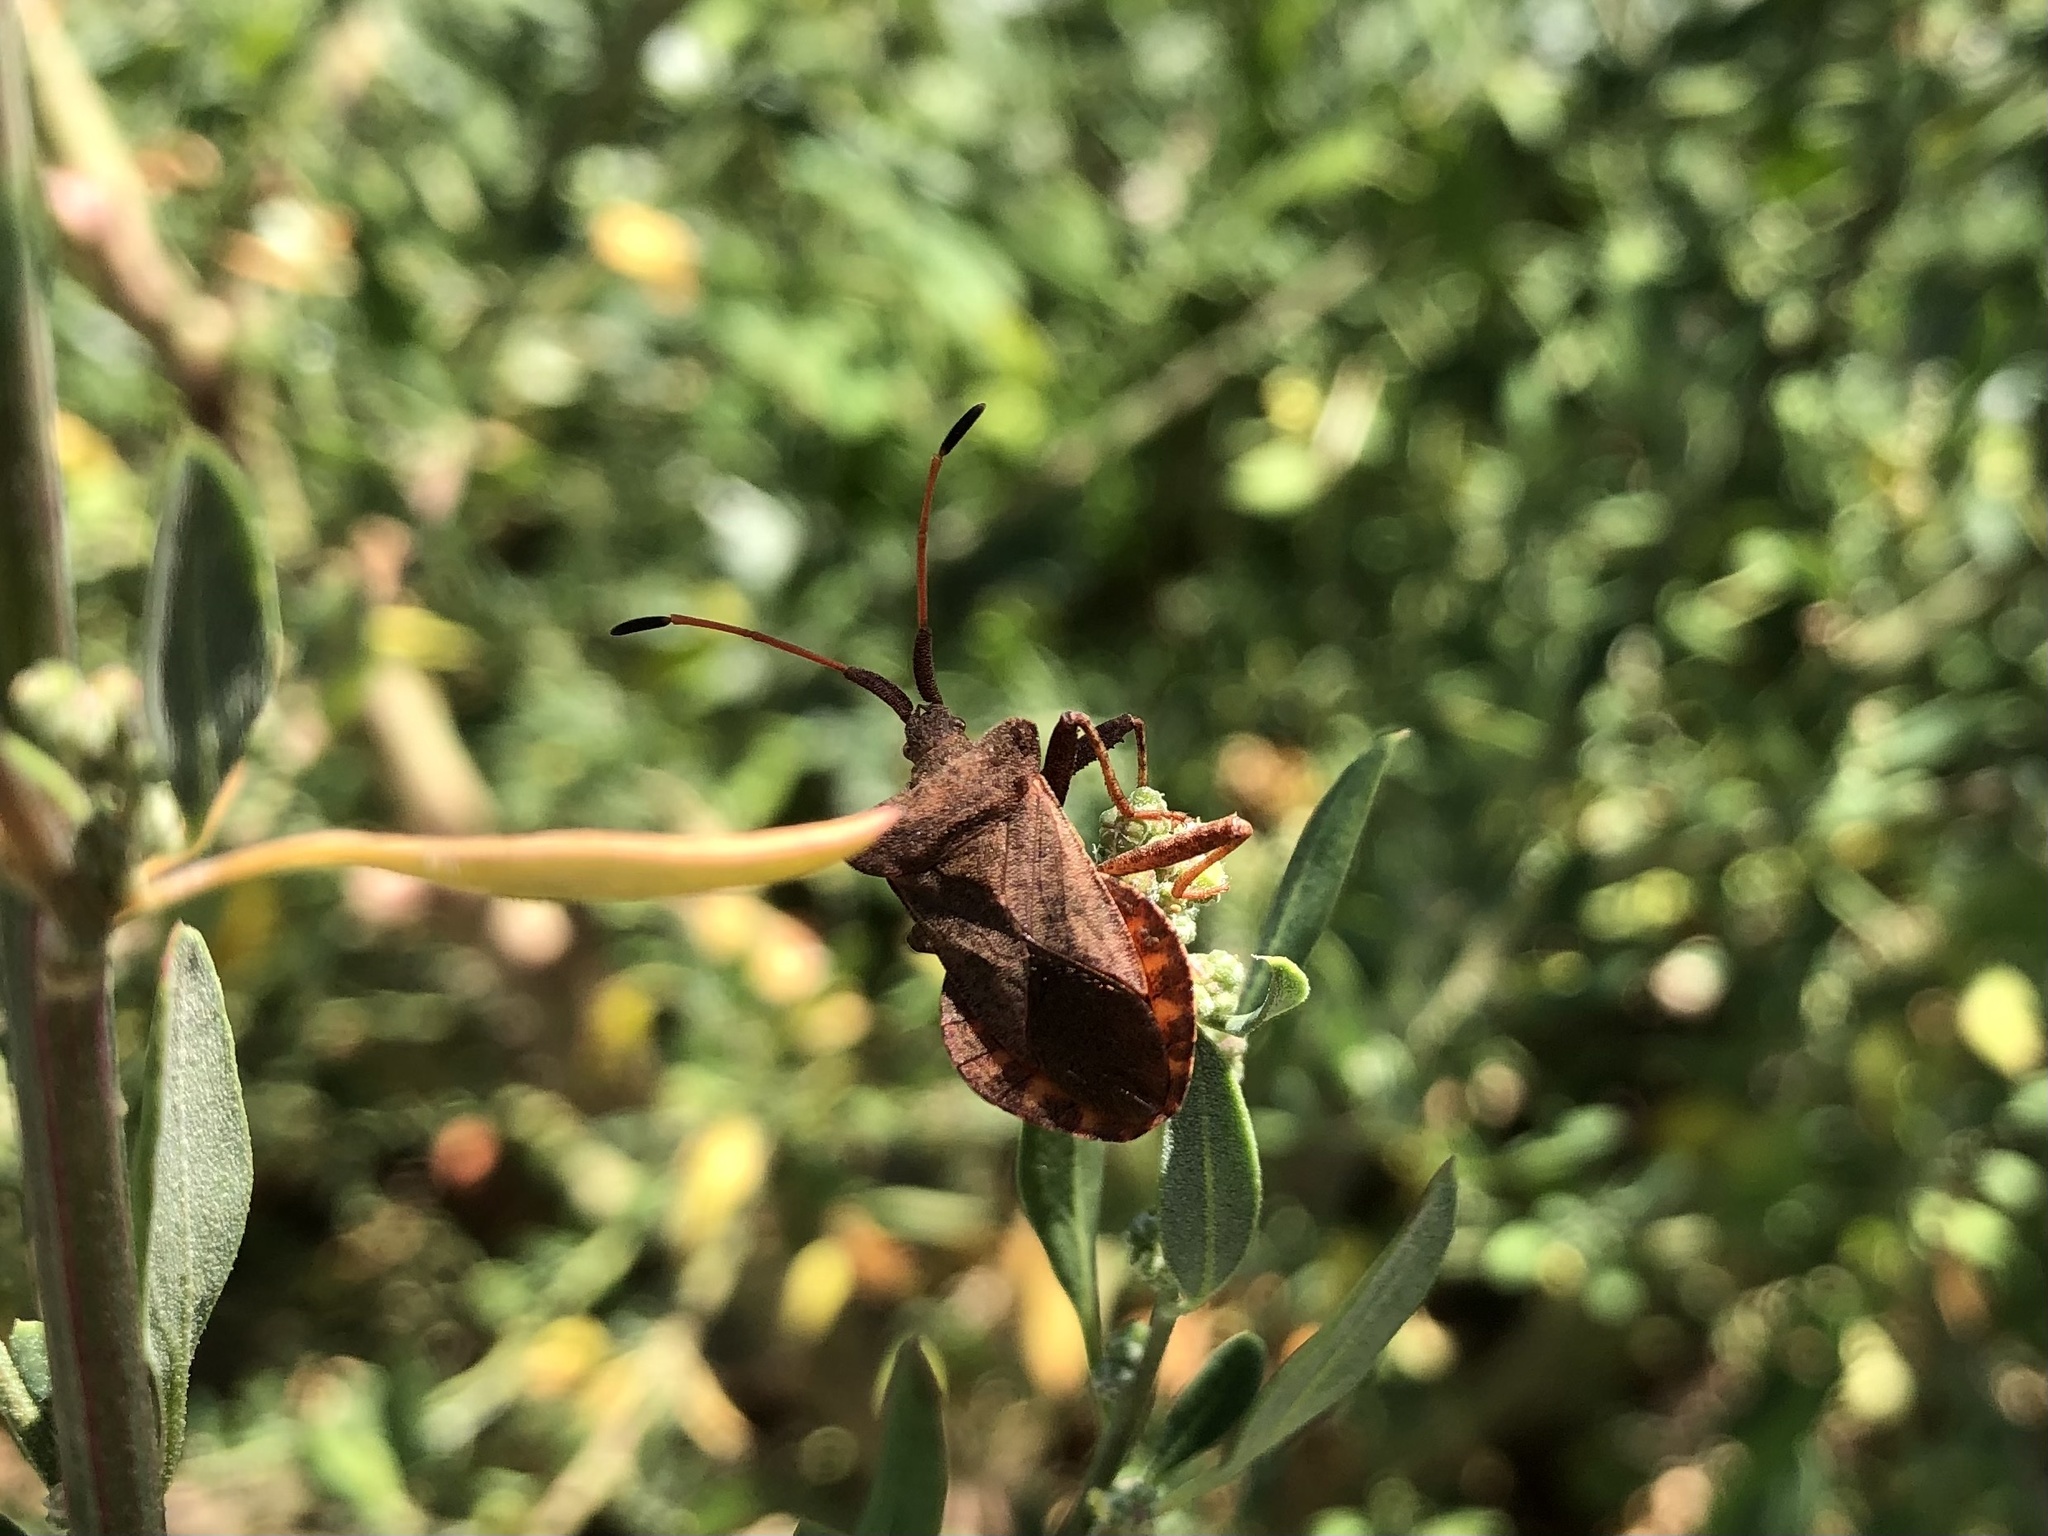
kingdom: Animalia
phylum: Arthropoda
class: Insecta
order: Hemiptera
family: Coreidae
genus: Coreus
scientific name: Coreus marginatus
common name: Dock bug
